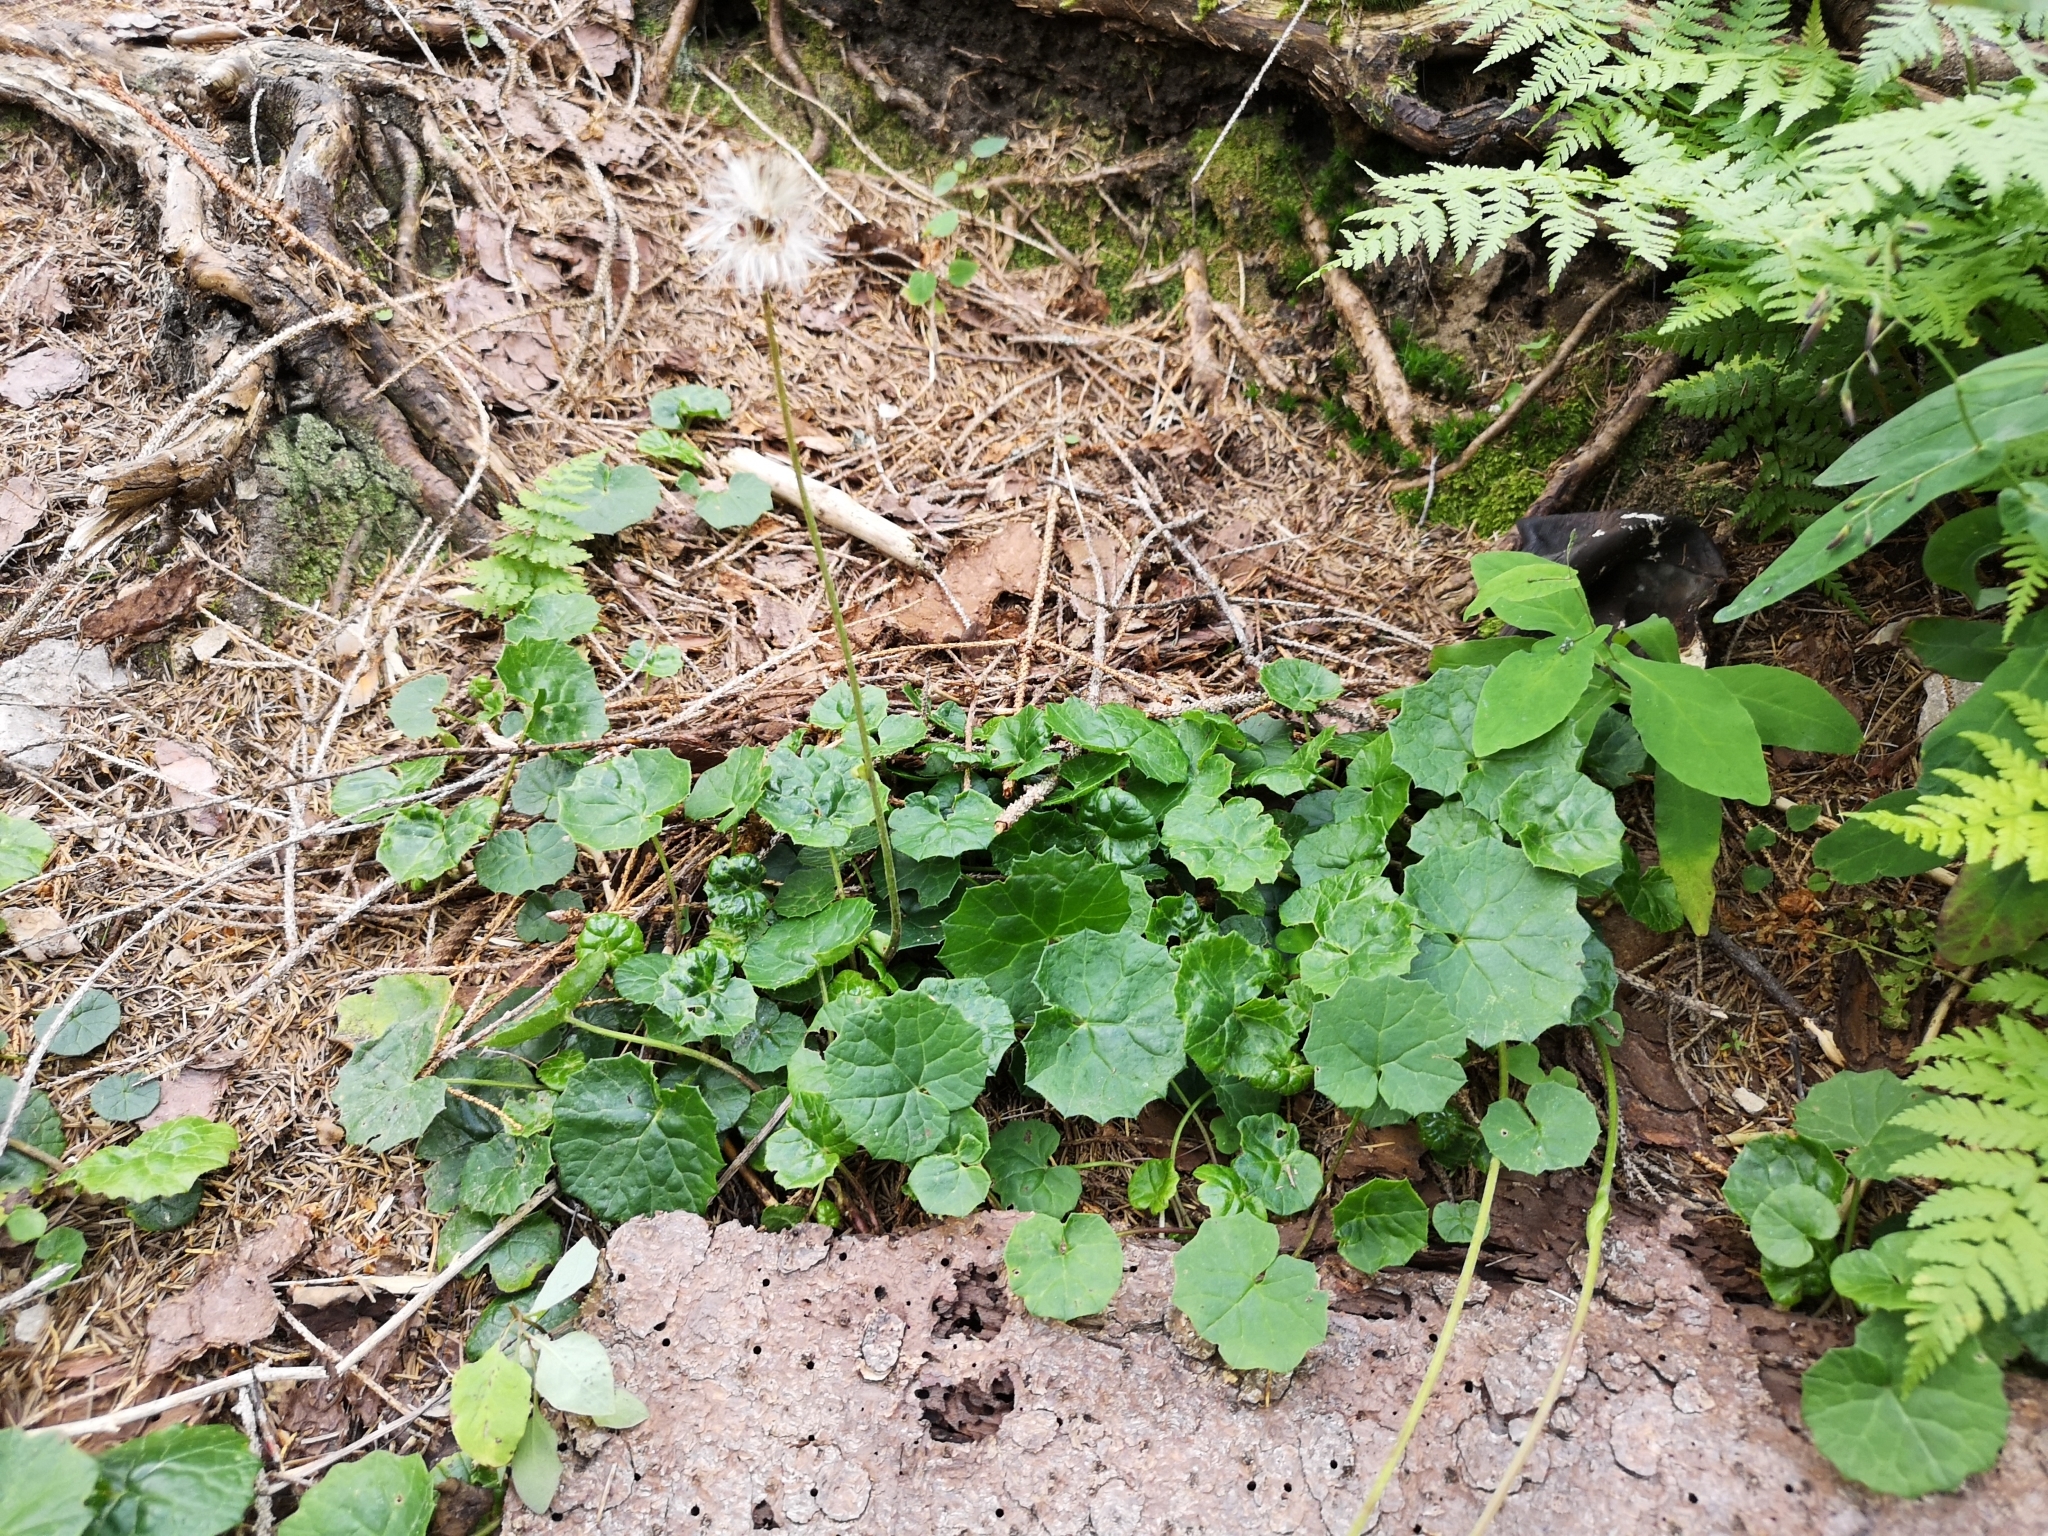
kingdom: Plantae
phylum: Tracheophyta
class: Magnoliopsida
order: Asterales
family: Asteraceae
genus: Homogyne
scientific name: Homogyne alpina
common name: Purple colt's-foot
